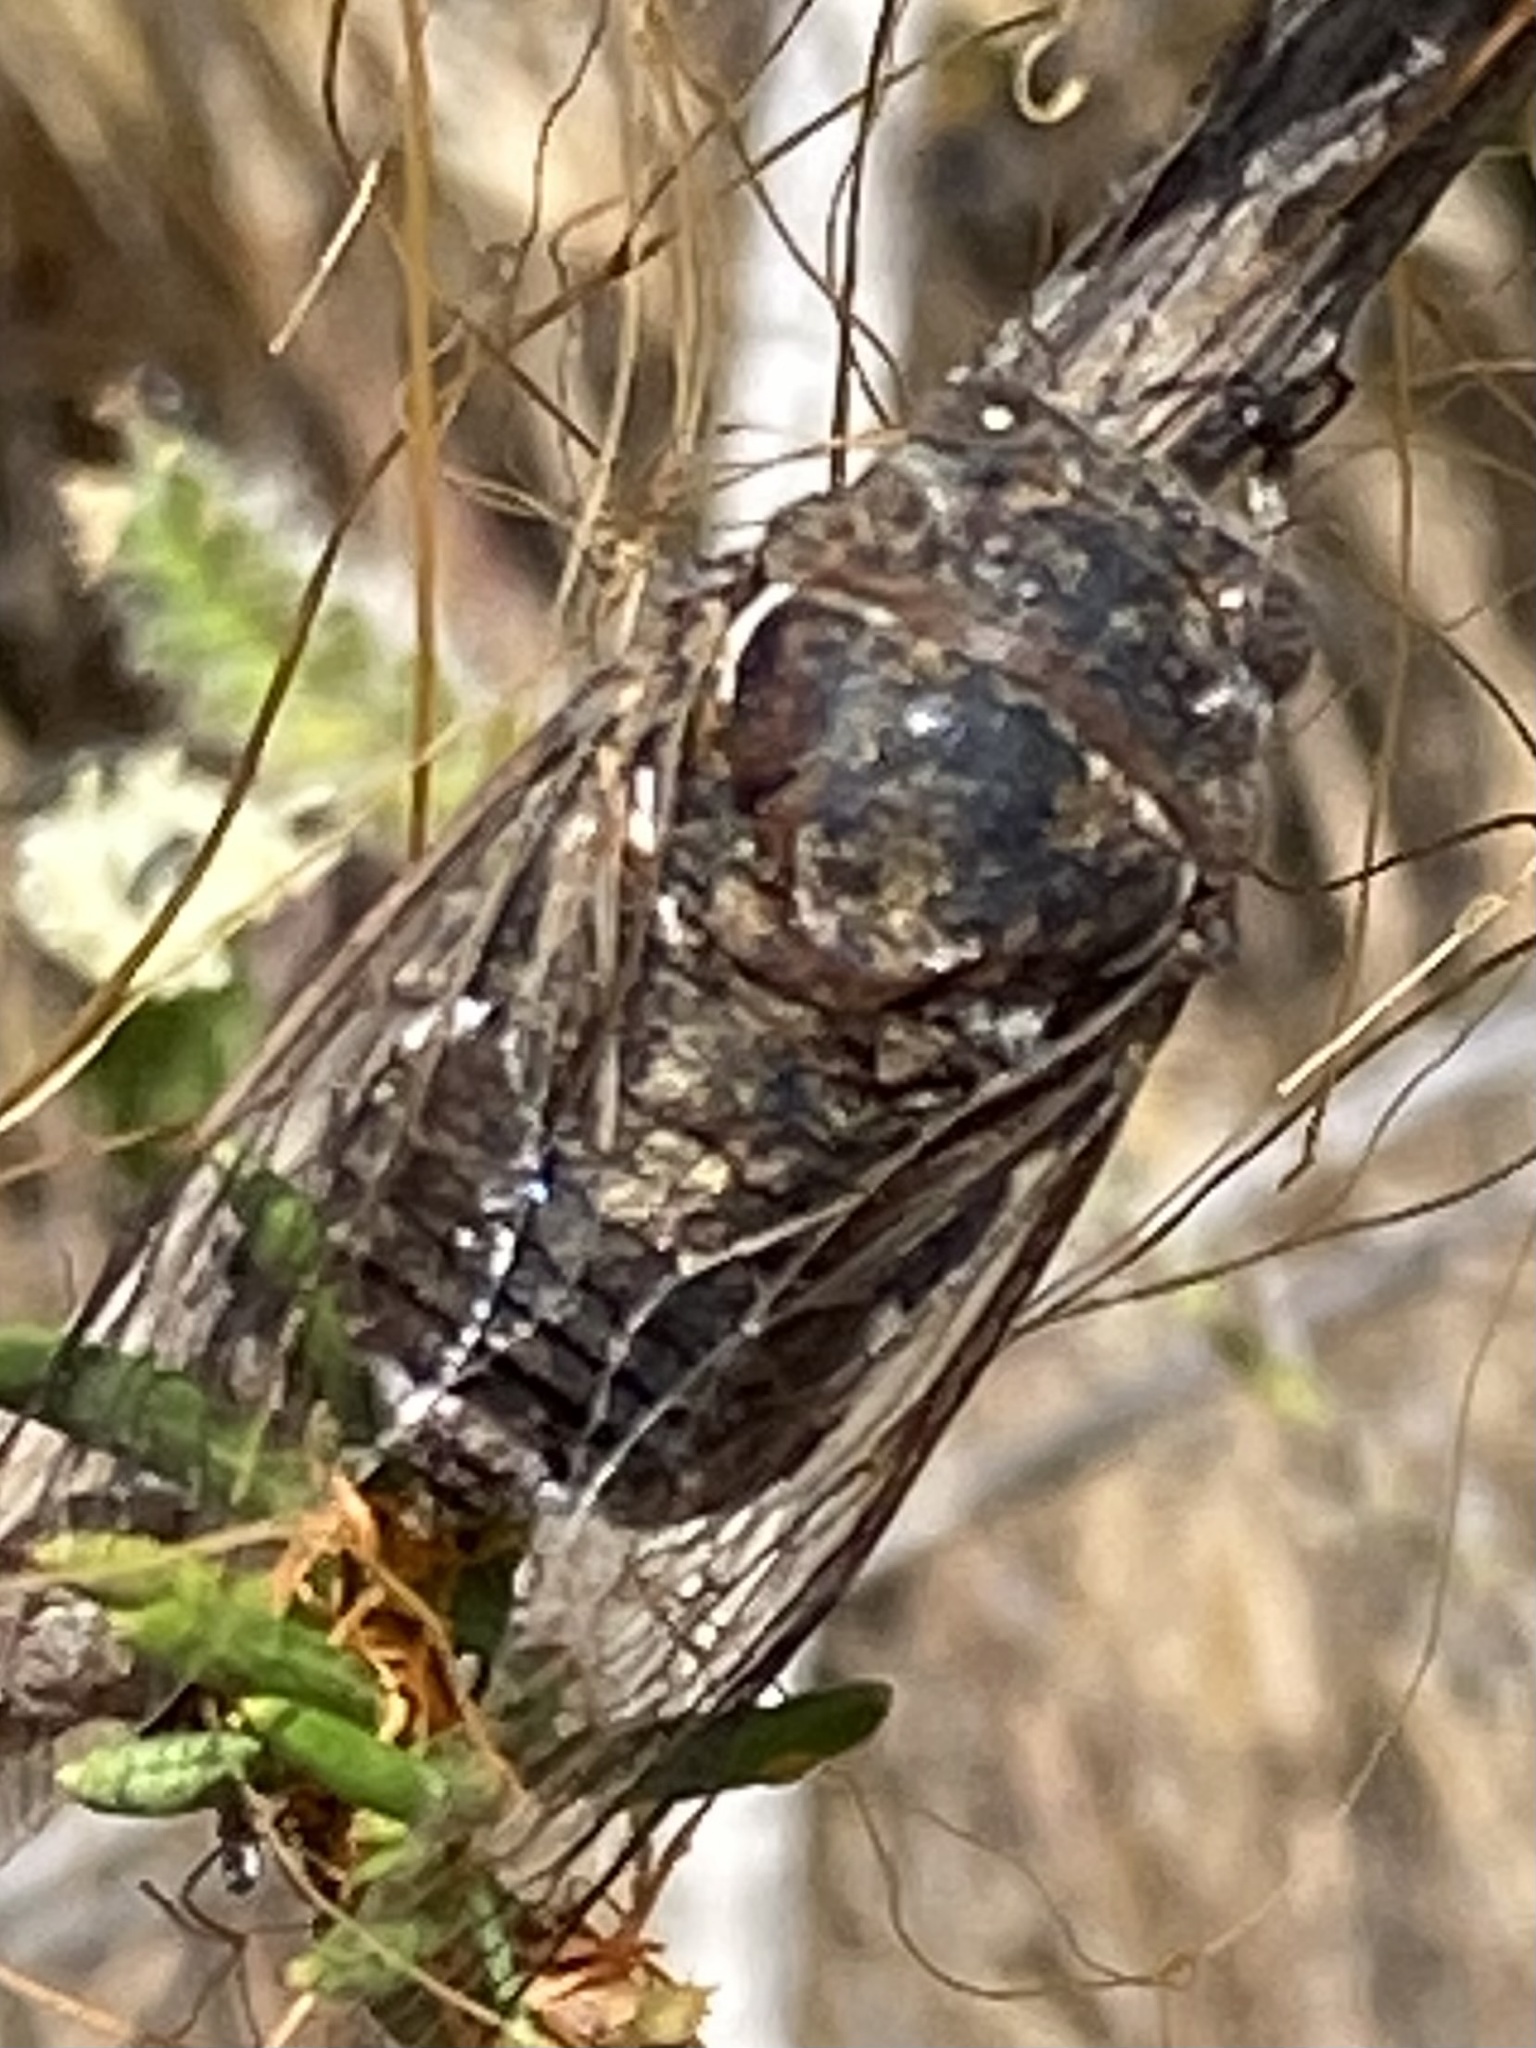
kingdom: Animalia
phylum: Arthropoda
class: Insecta
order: Hemiptera
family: Cicadidae
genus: Cacama
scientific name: Cacama crepitans
